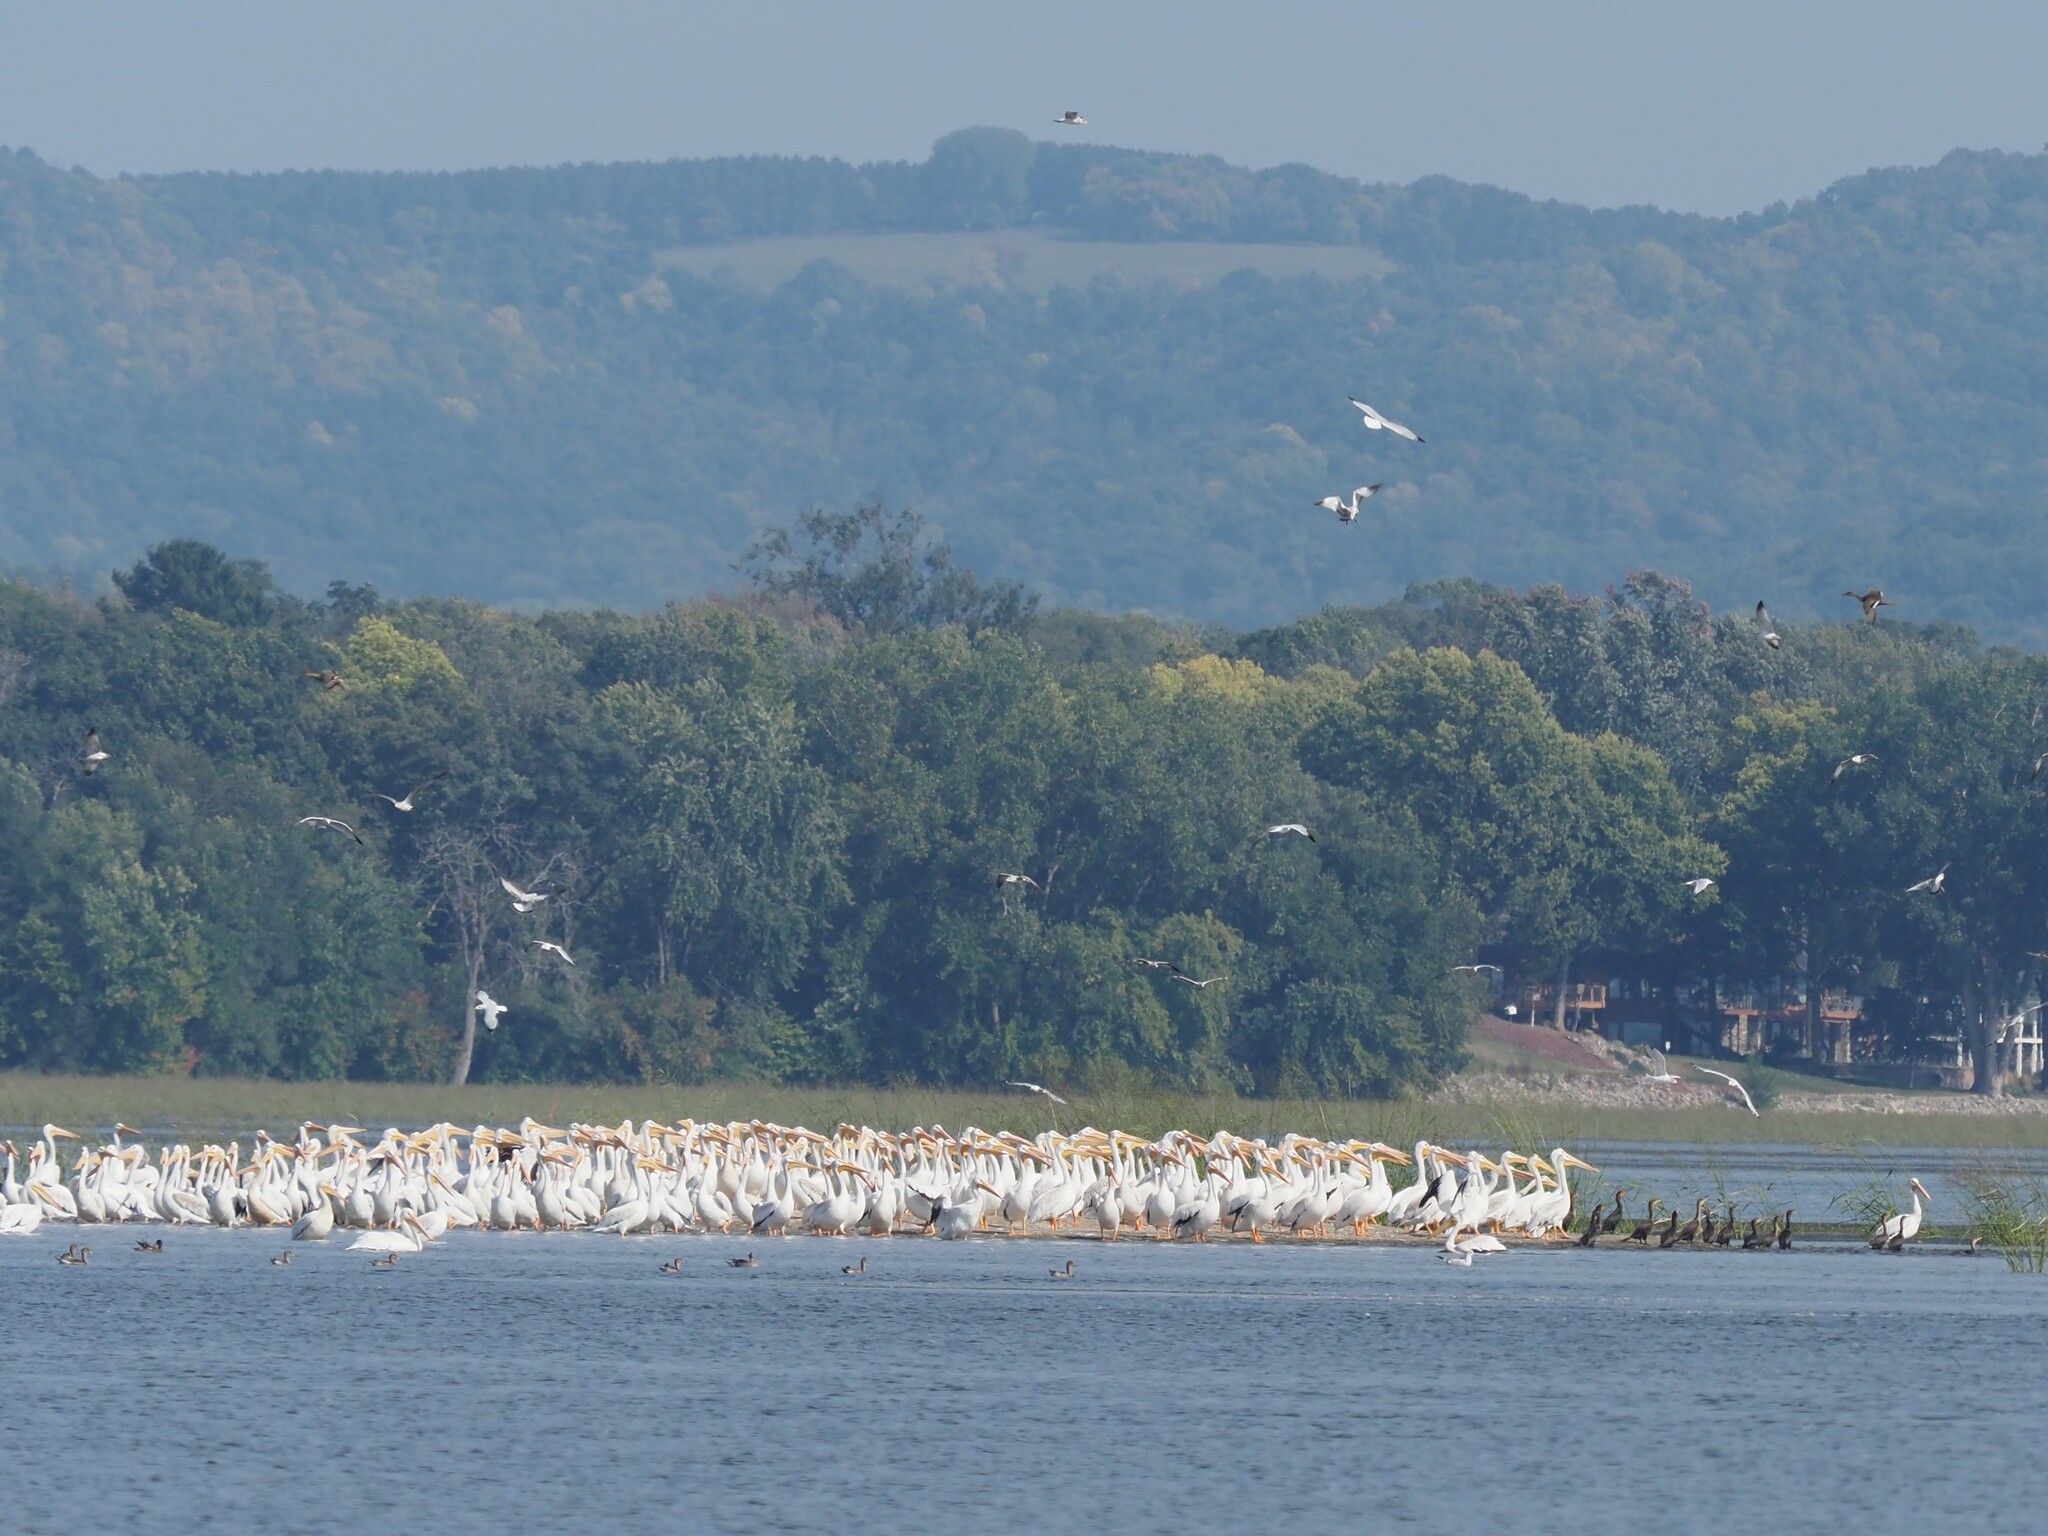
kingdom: Animalia
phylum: Chordata
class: Aves
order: Pelecaniformes
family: Pelecanidae
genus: Pelecanus
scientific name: Pelecanus erythrorhynchos
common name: American white pelican
